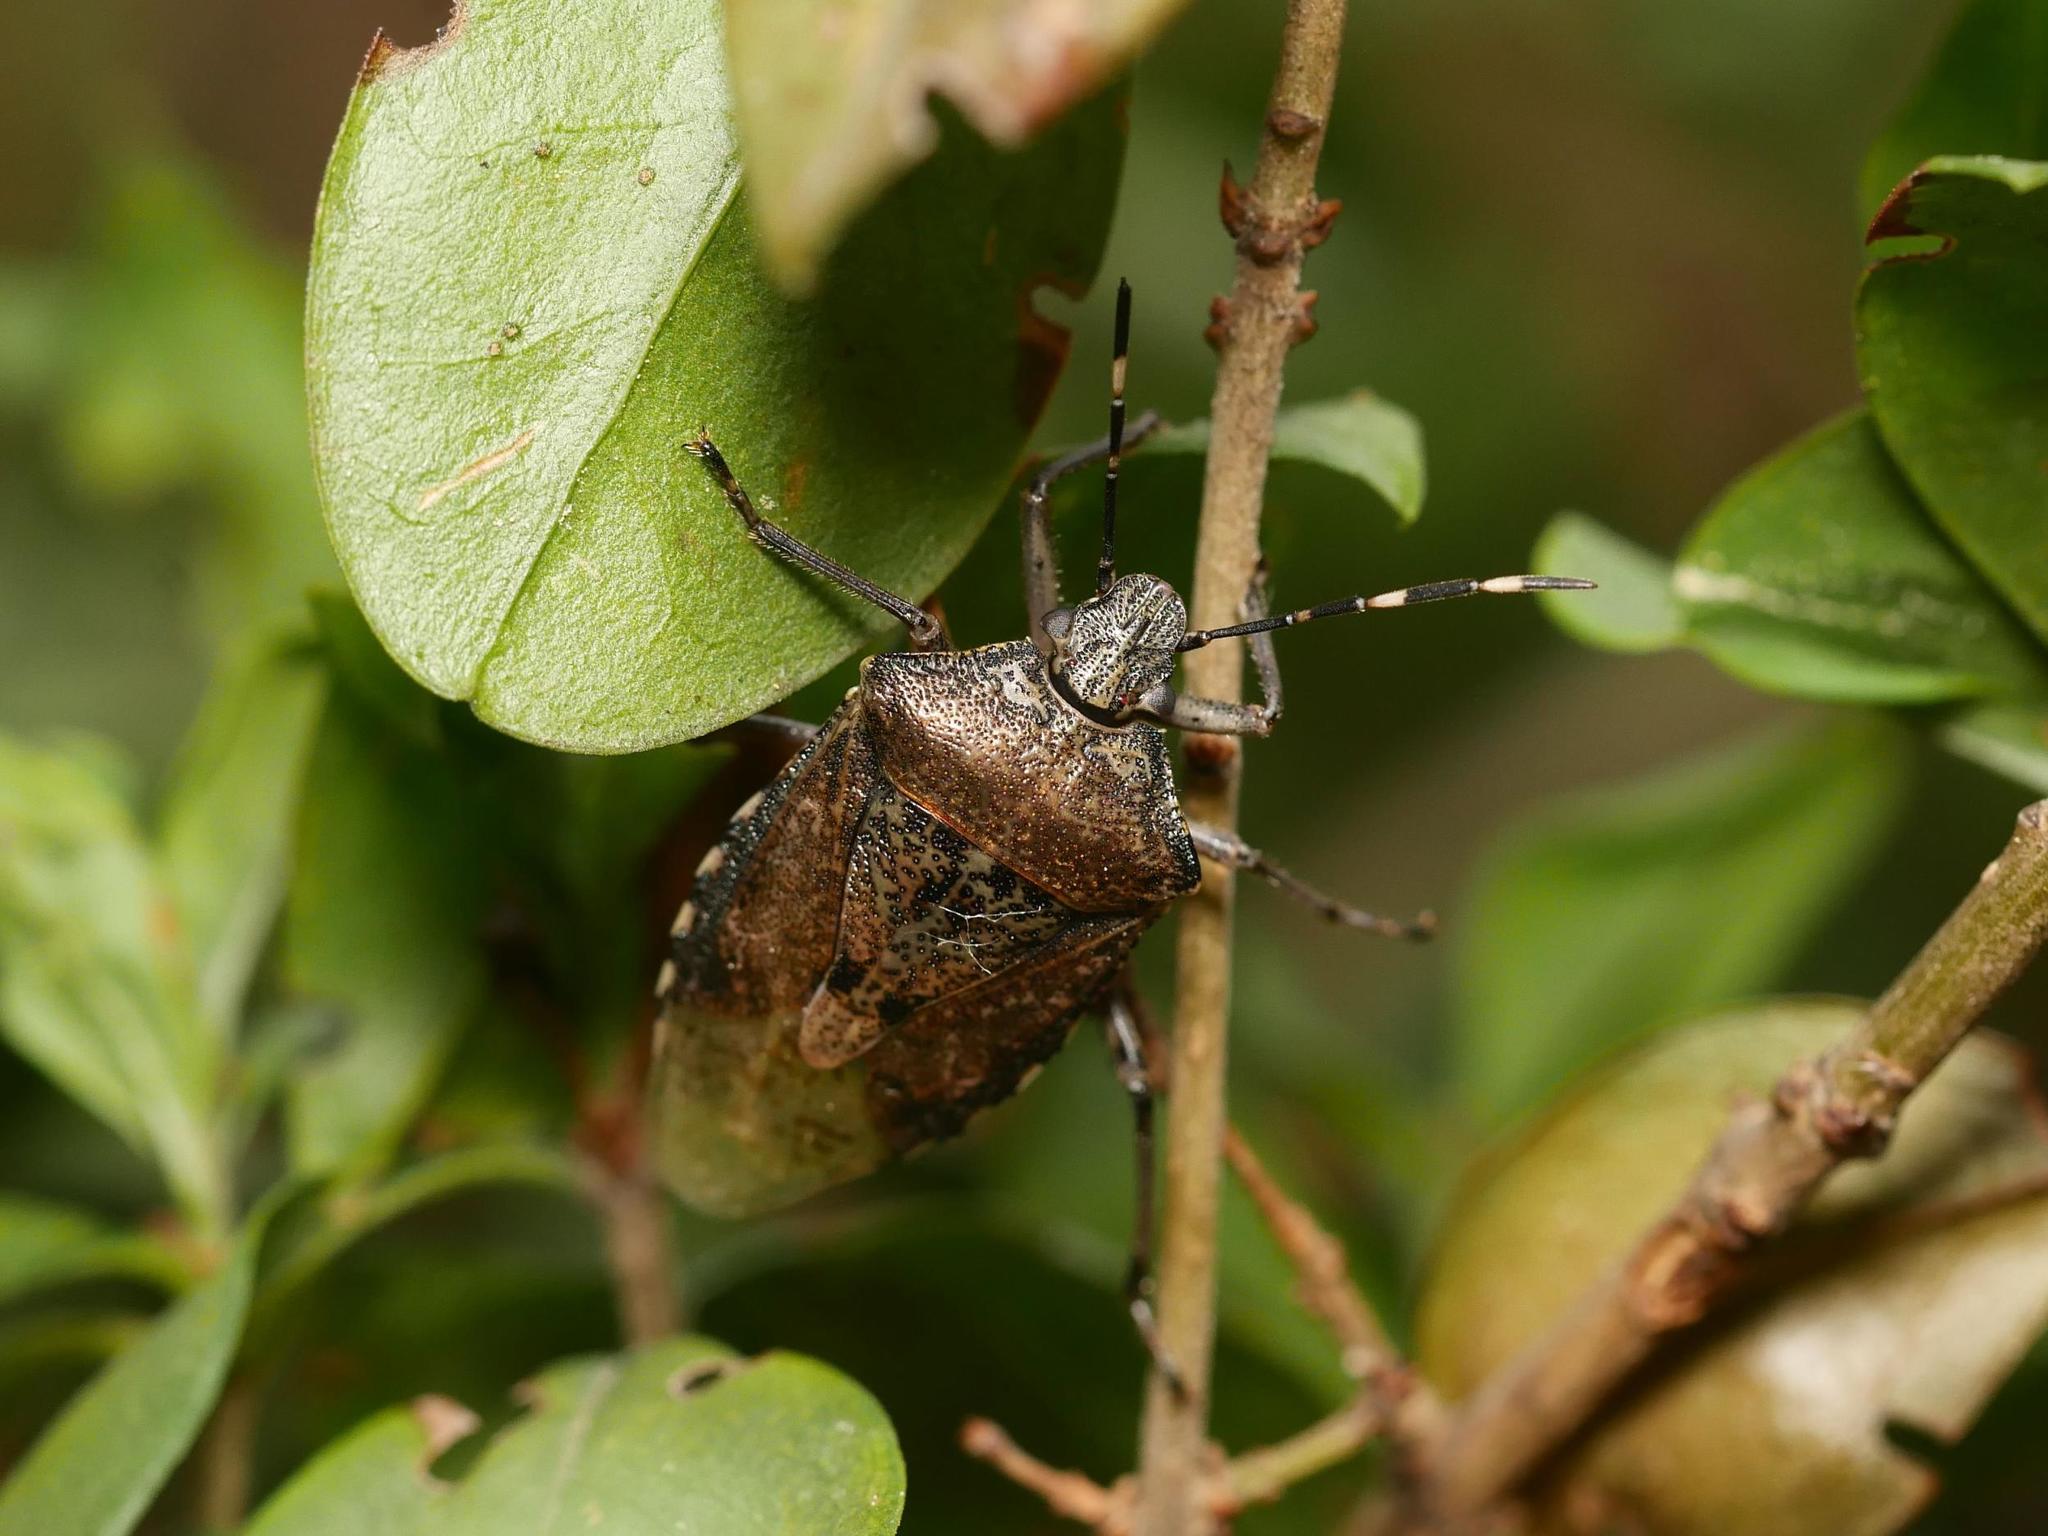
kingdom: Animalia
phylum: Arthropoda
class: Insecta
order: Hemiptera
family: Pentatomidae
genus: Rhaphigaster
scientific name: Rhaphigaster nebulosa
